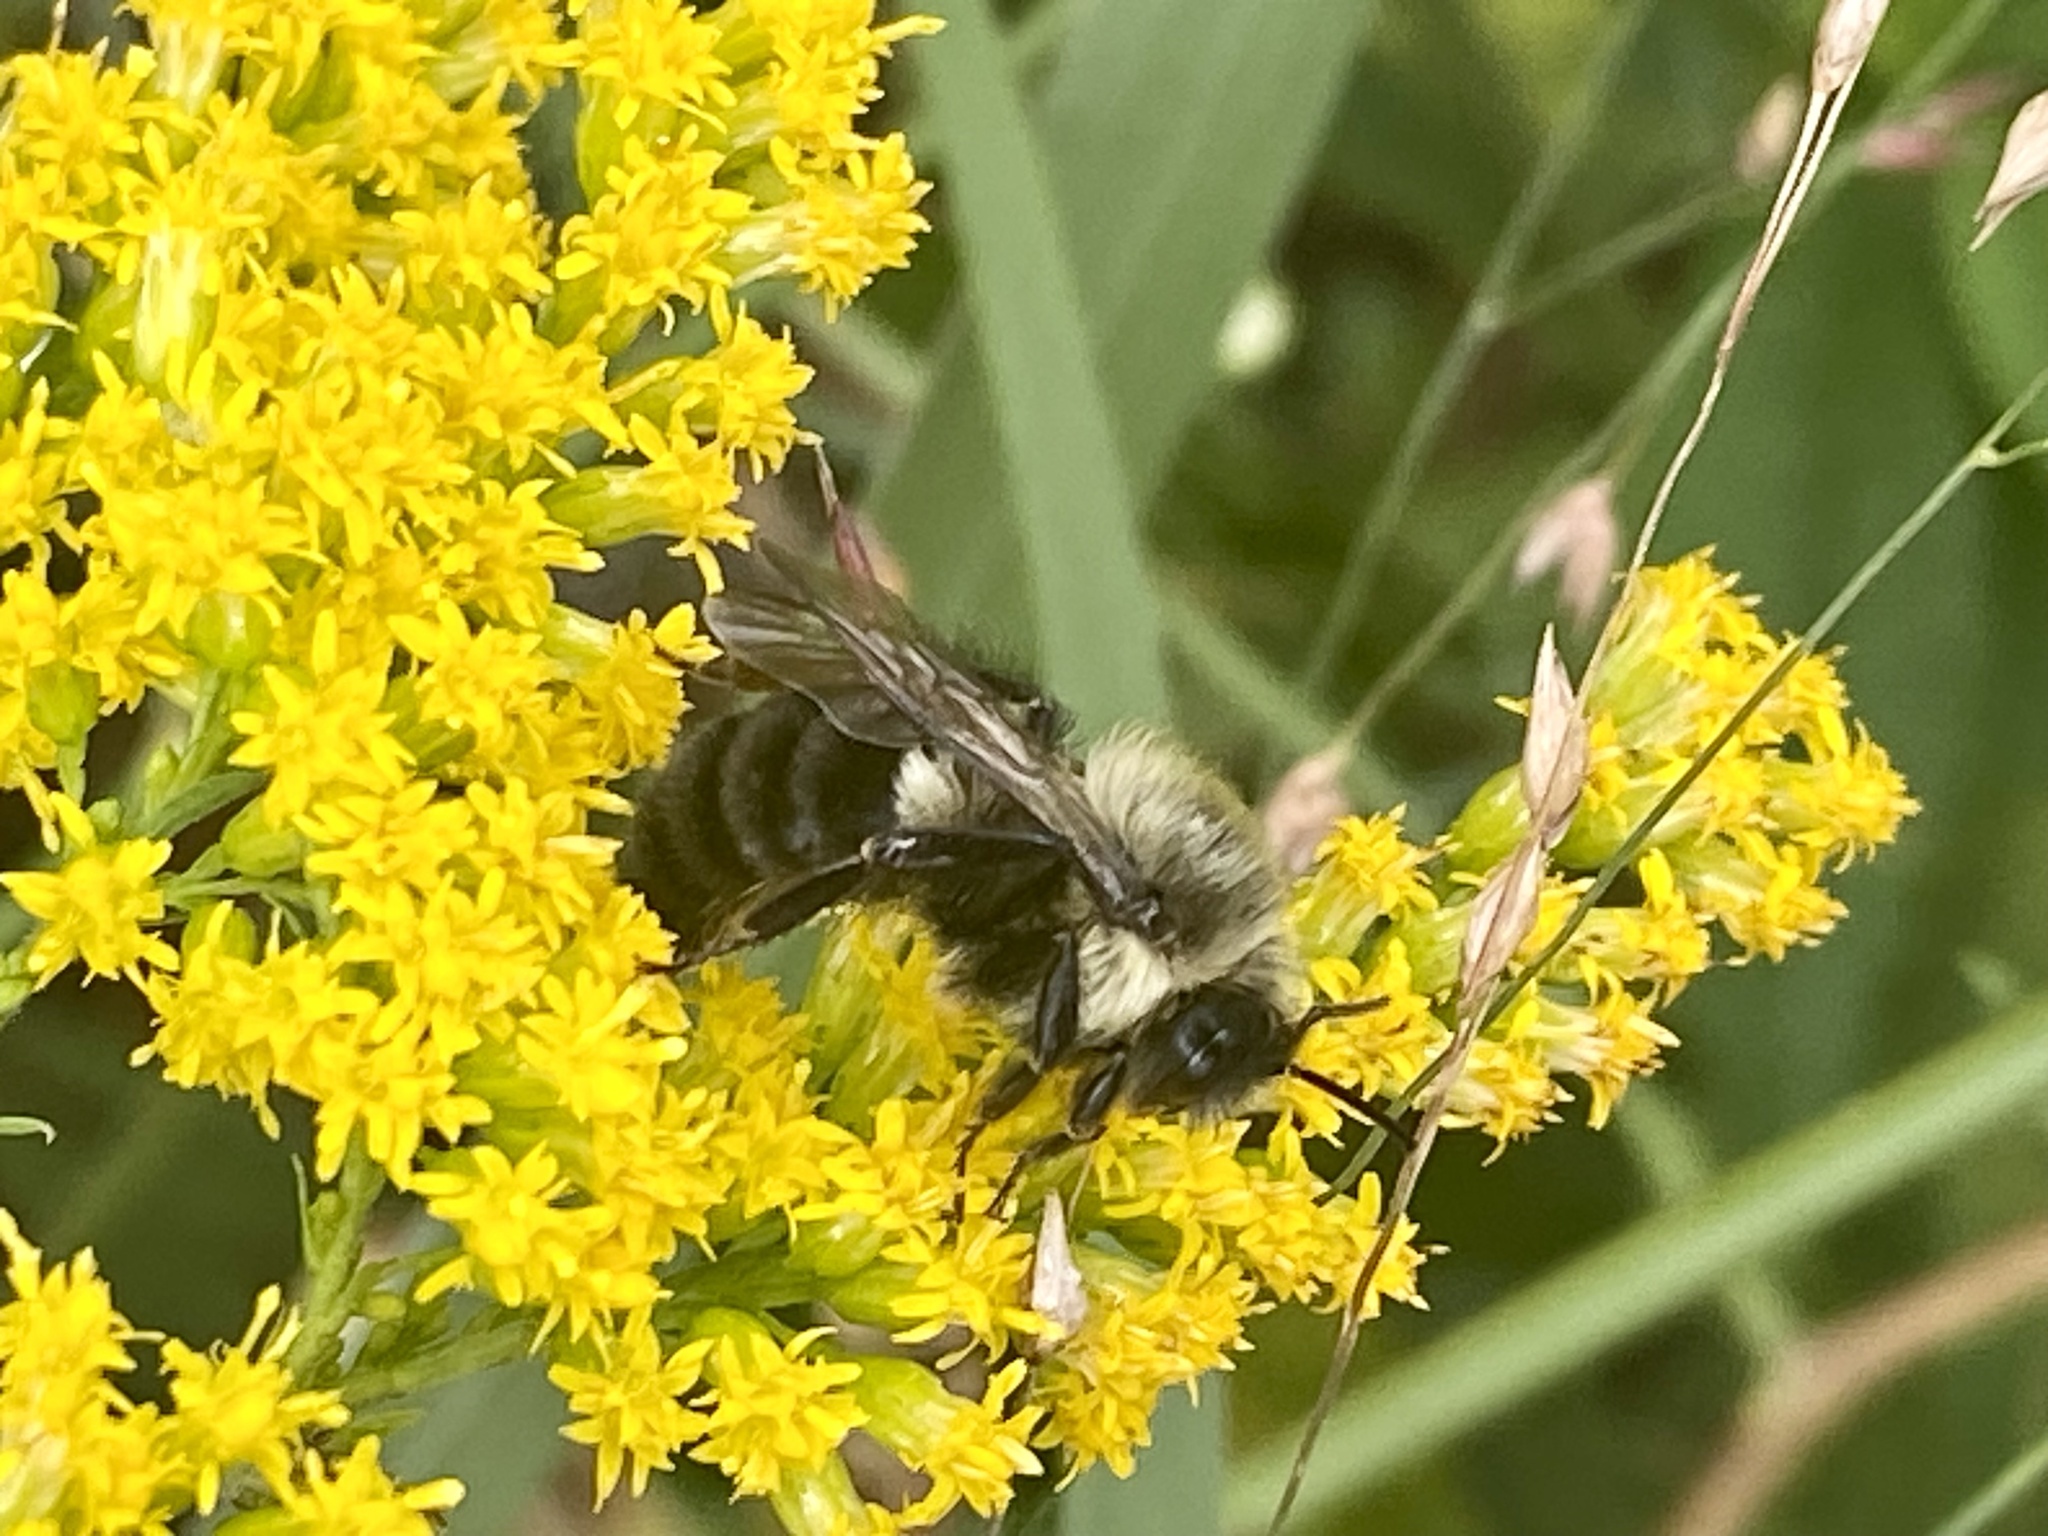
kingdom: Animalia
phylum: Arthropoda
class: Insecta
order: Hymenoptera
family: Apidae
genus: Bombus
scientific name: Bombus impatiens
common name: Common eastern bumble bee
